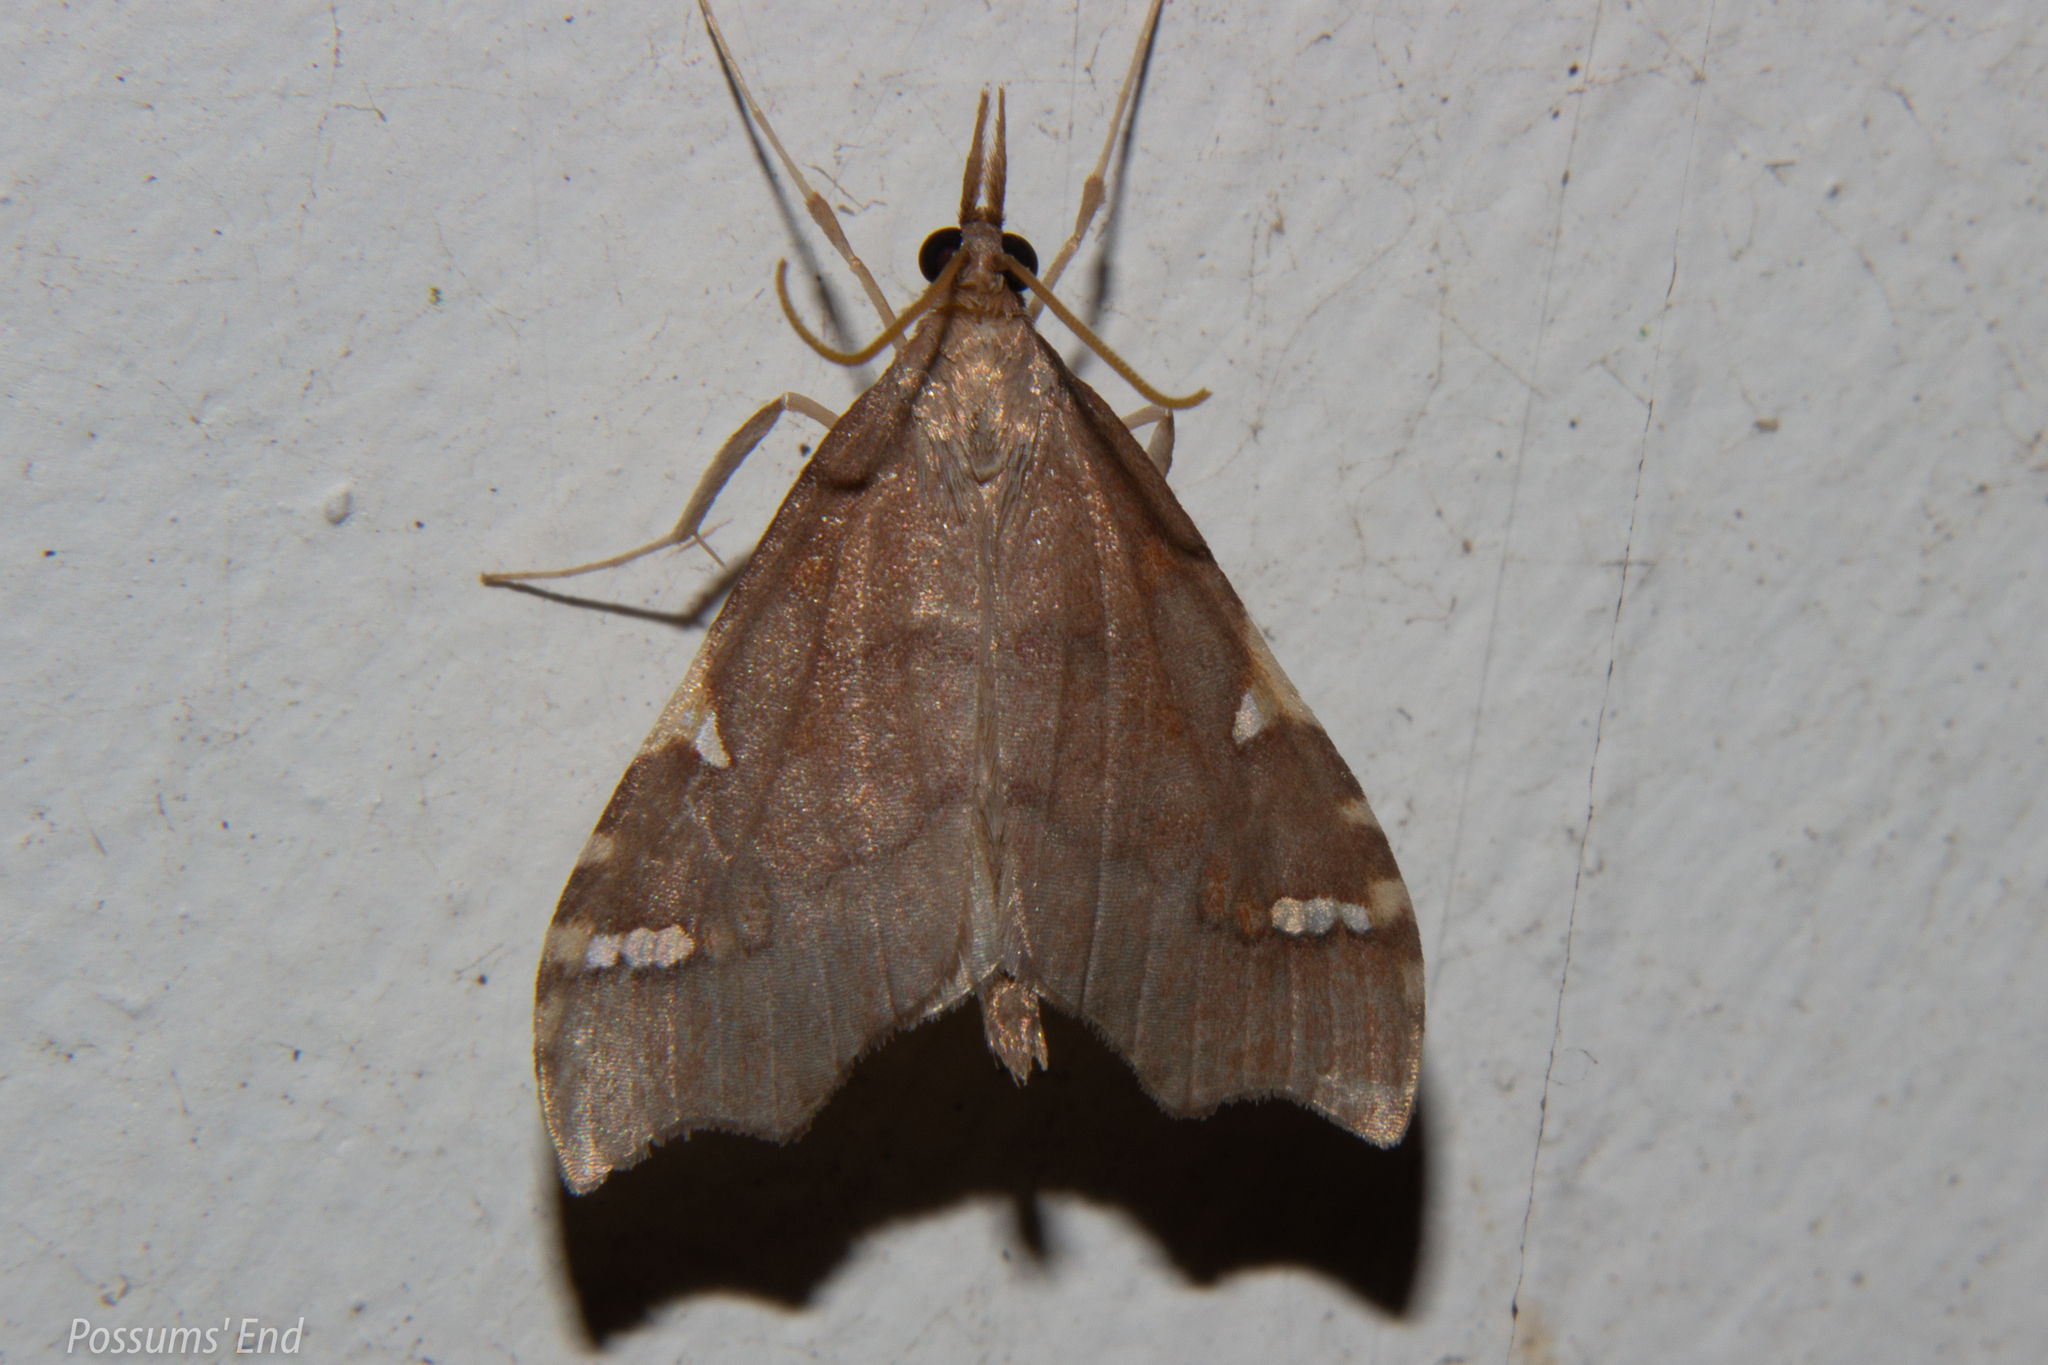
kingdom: Animalia
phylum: Arthropoda
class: Insecta
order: Lepidoptera
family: Crambidae
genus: Deana
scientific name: Deana hybreasalis
